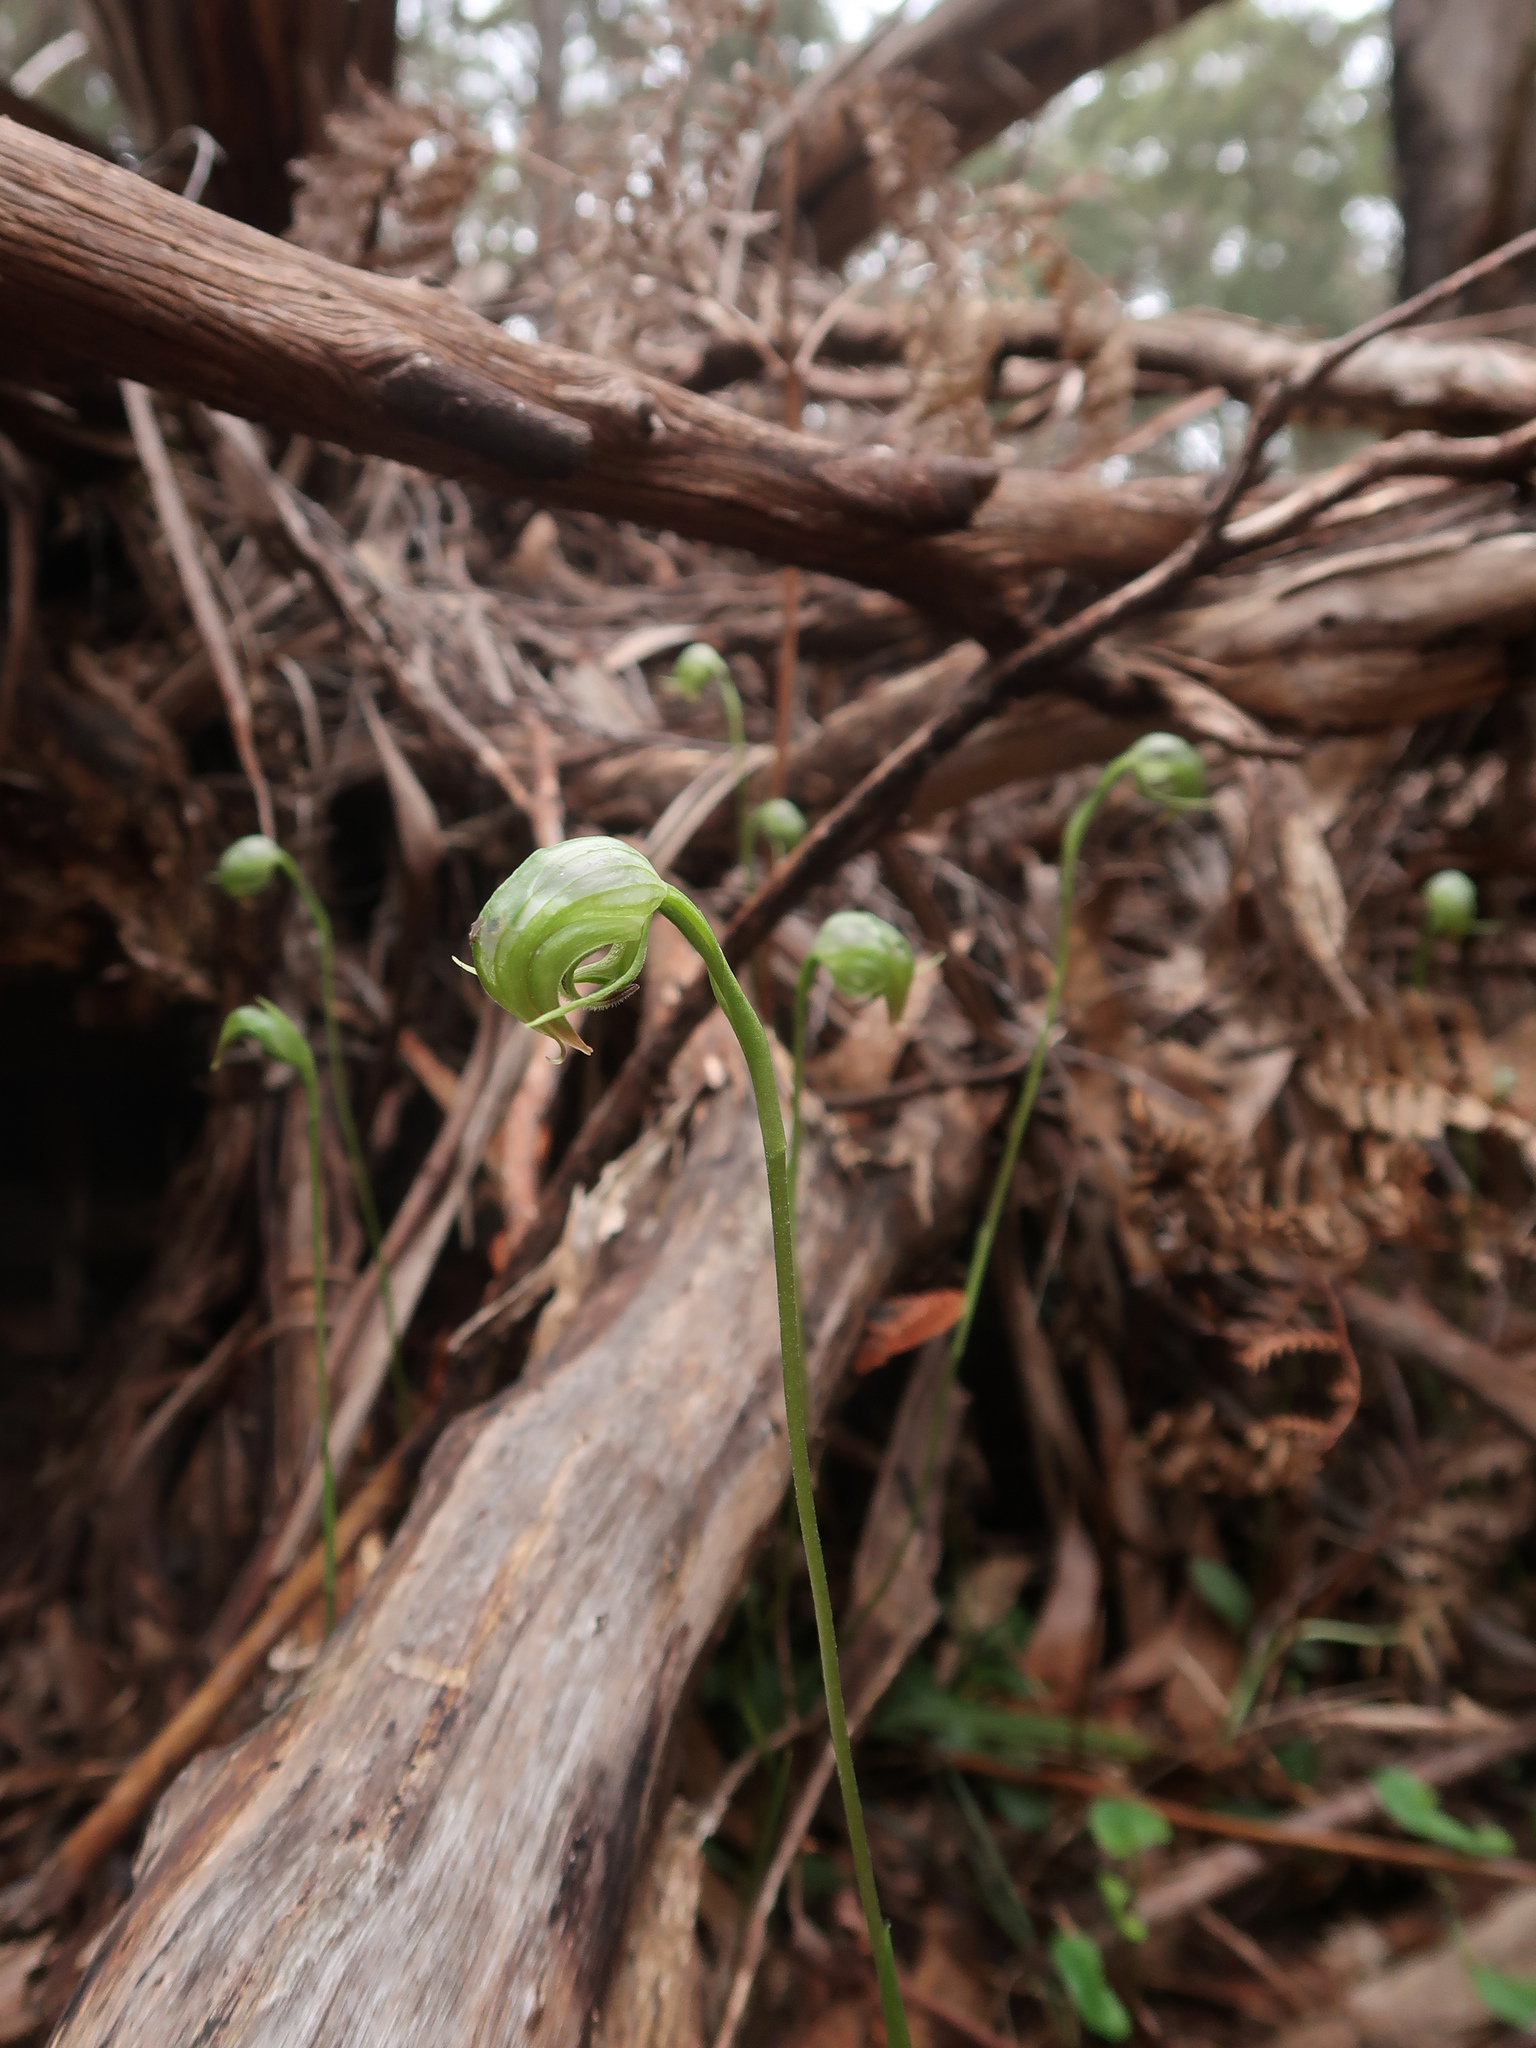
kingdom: Plantae
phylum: Tracheophyta
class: Liliopsida
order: Asparagales
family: Orchidaceae
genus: Pterostylis
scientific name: Pterostylis nutans
